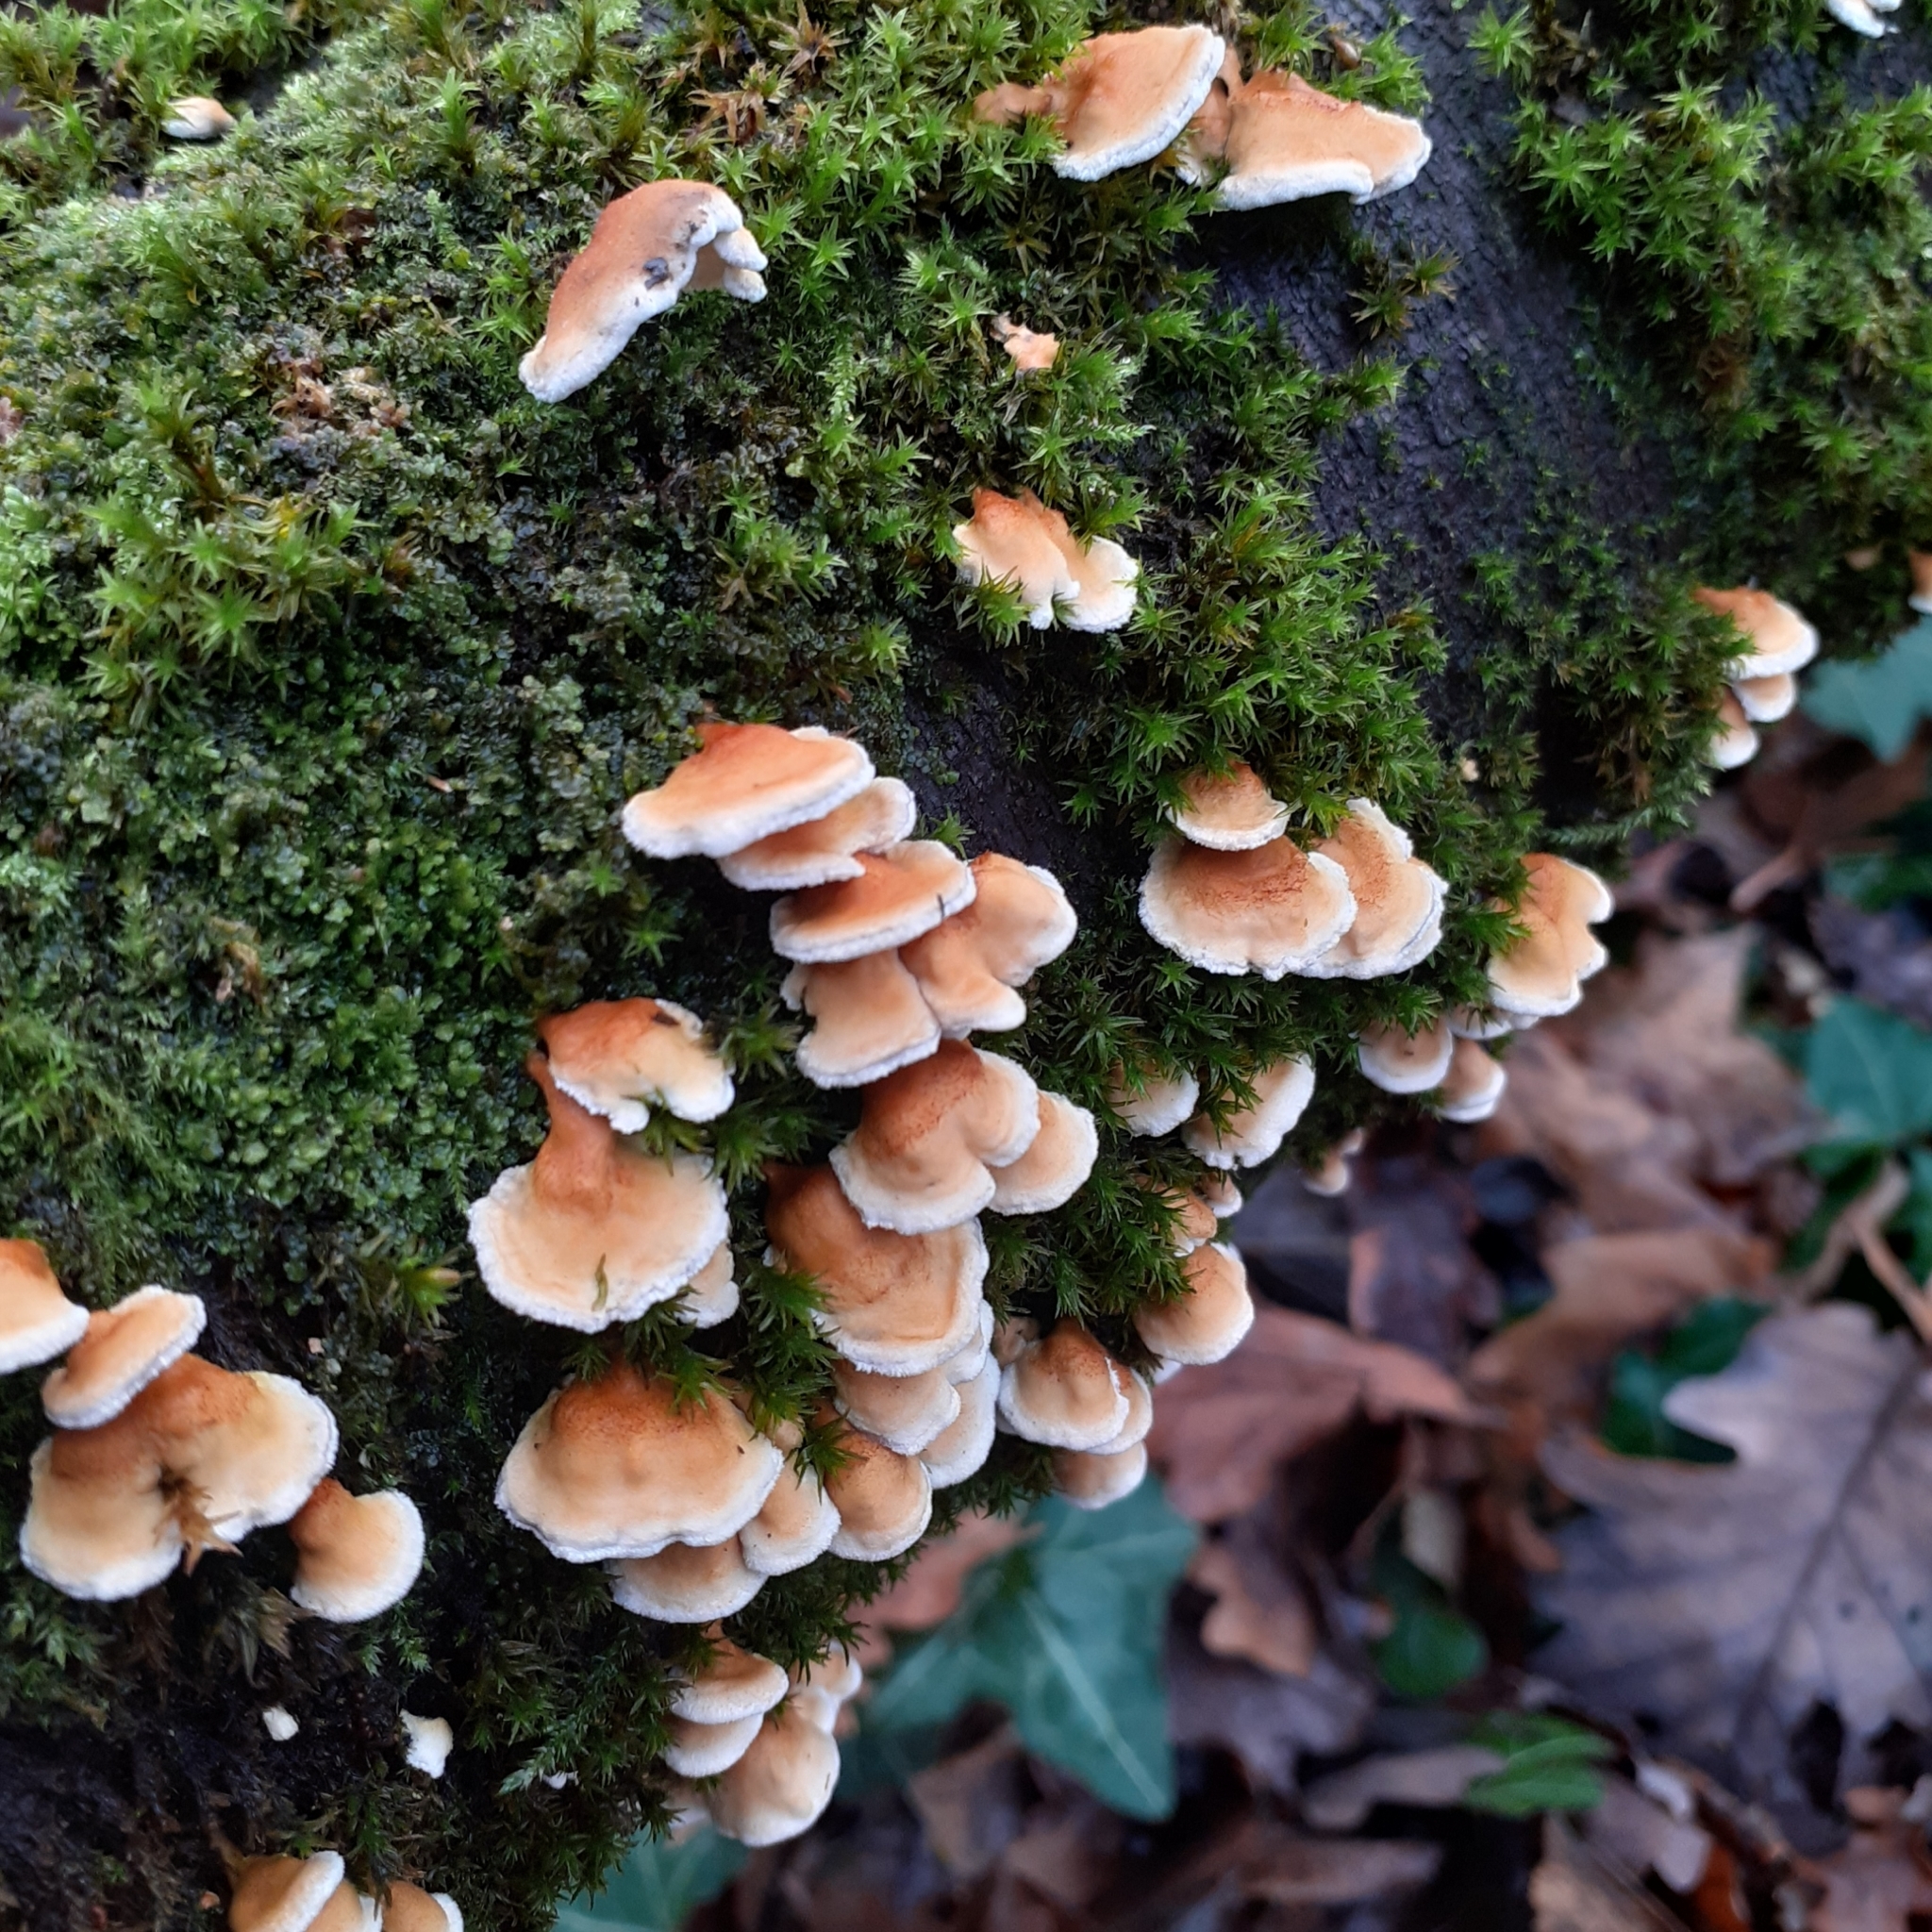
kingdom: Fungi
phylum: Basidiomycota
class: Agaricomycetes
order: Amylocorticiales
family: Amylocorticiaceae
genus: Plicaturopsis
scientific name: Plicaturopsis crispa
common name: Crimped gill
